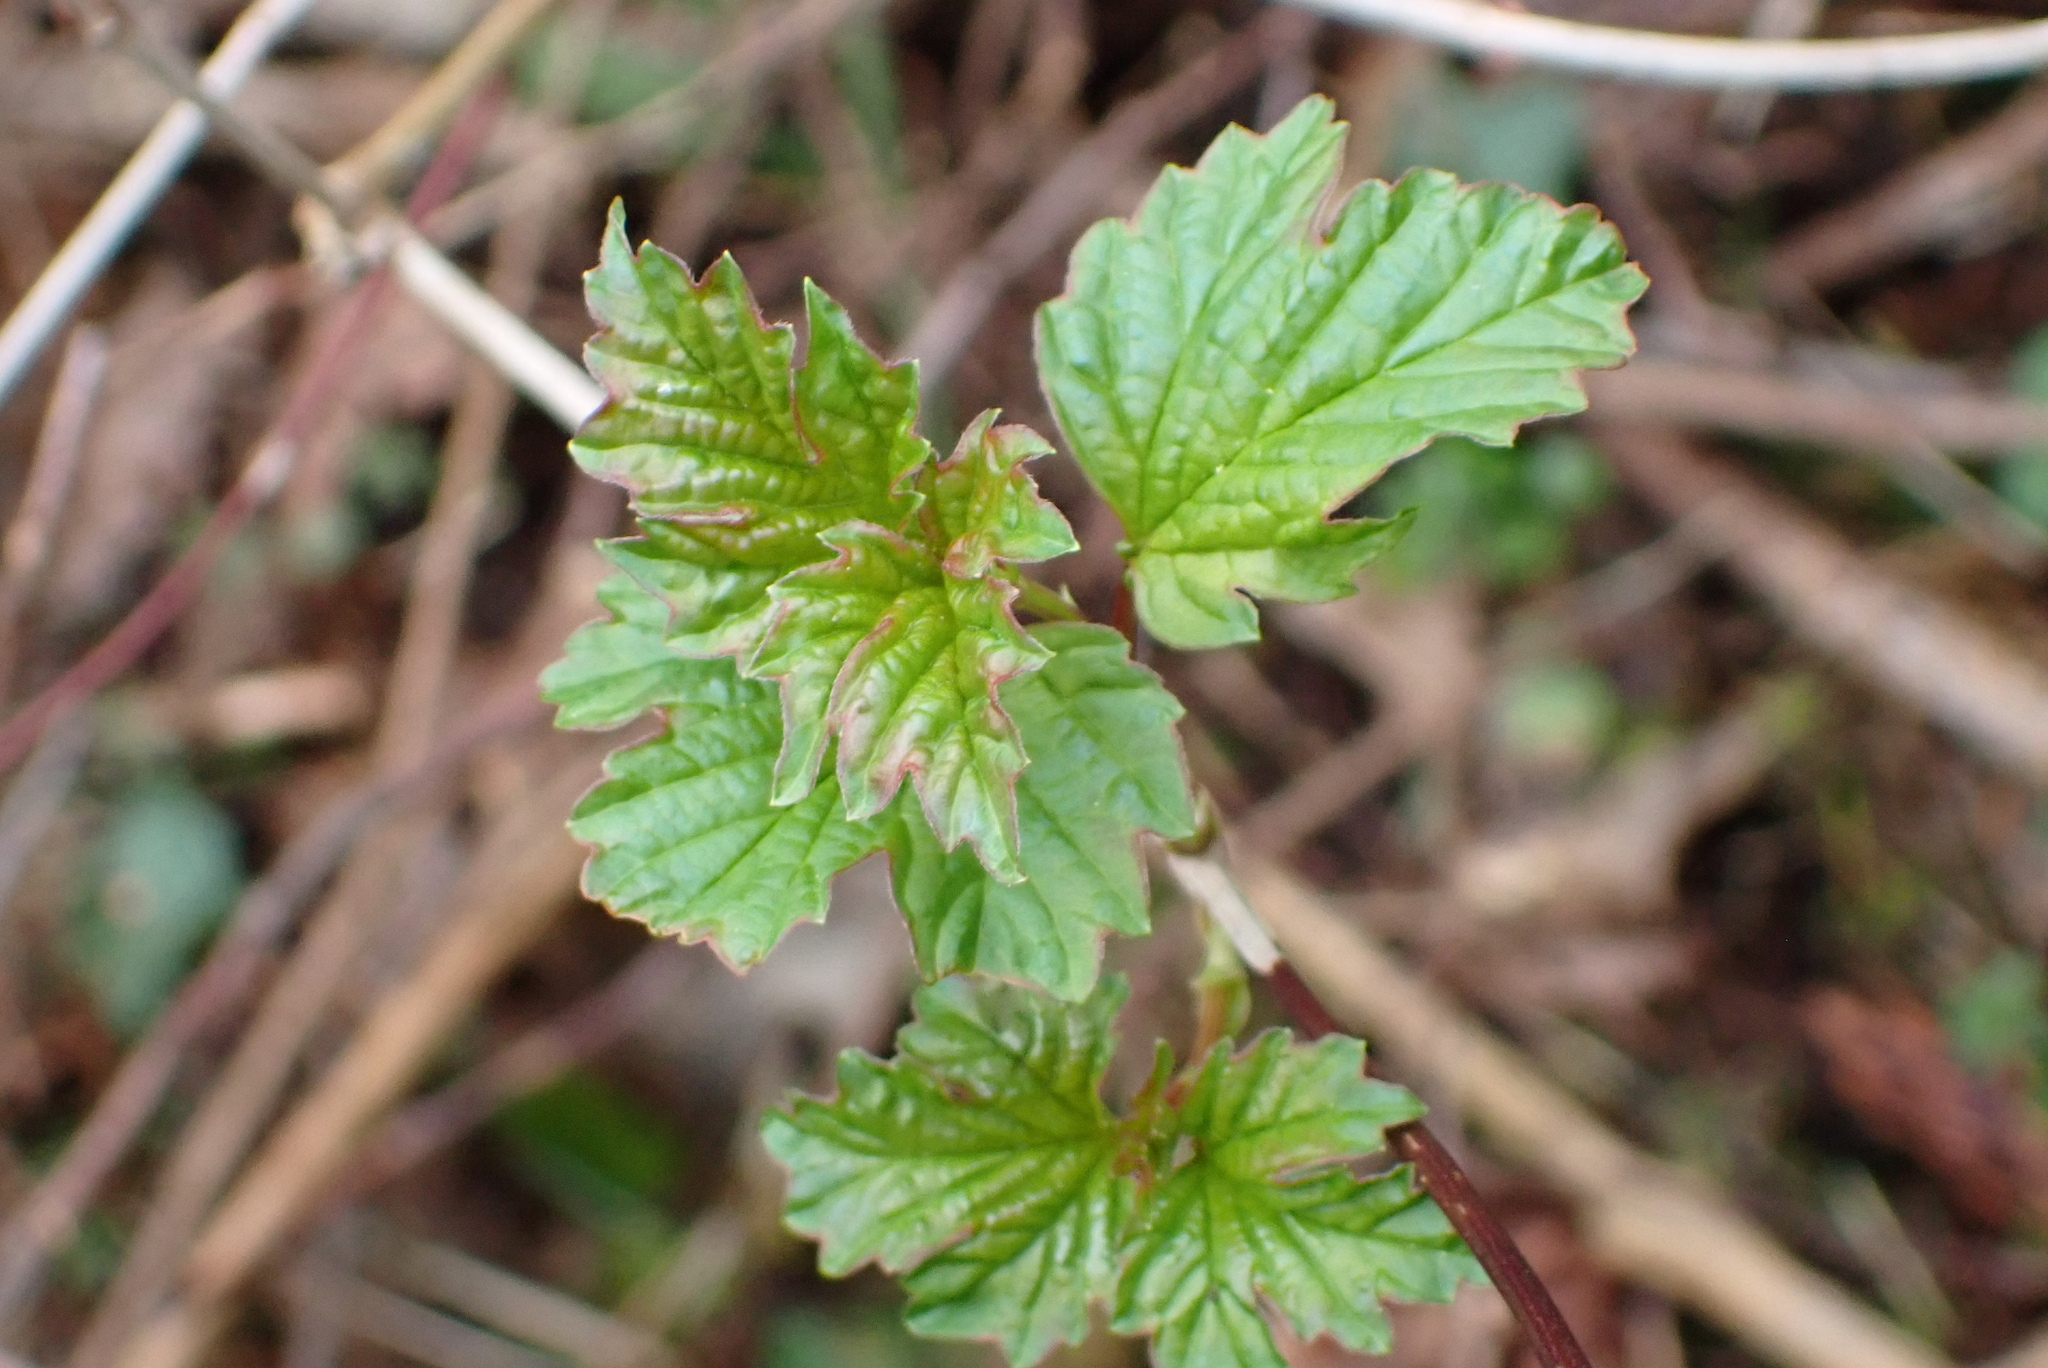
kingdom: Plantae
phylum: Tracheophyta
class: Magnoliopsida
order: Dipsacales
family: Viburnaceae
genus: Viburnum
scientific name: Viburnum opulus
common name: Guelder-rose
